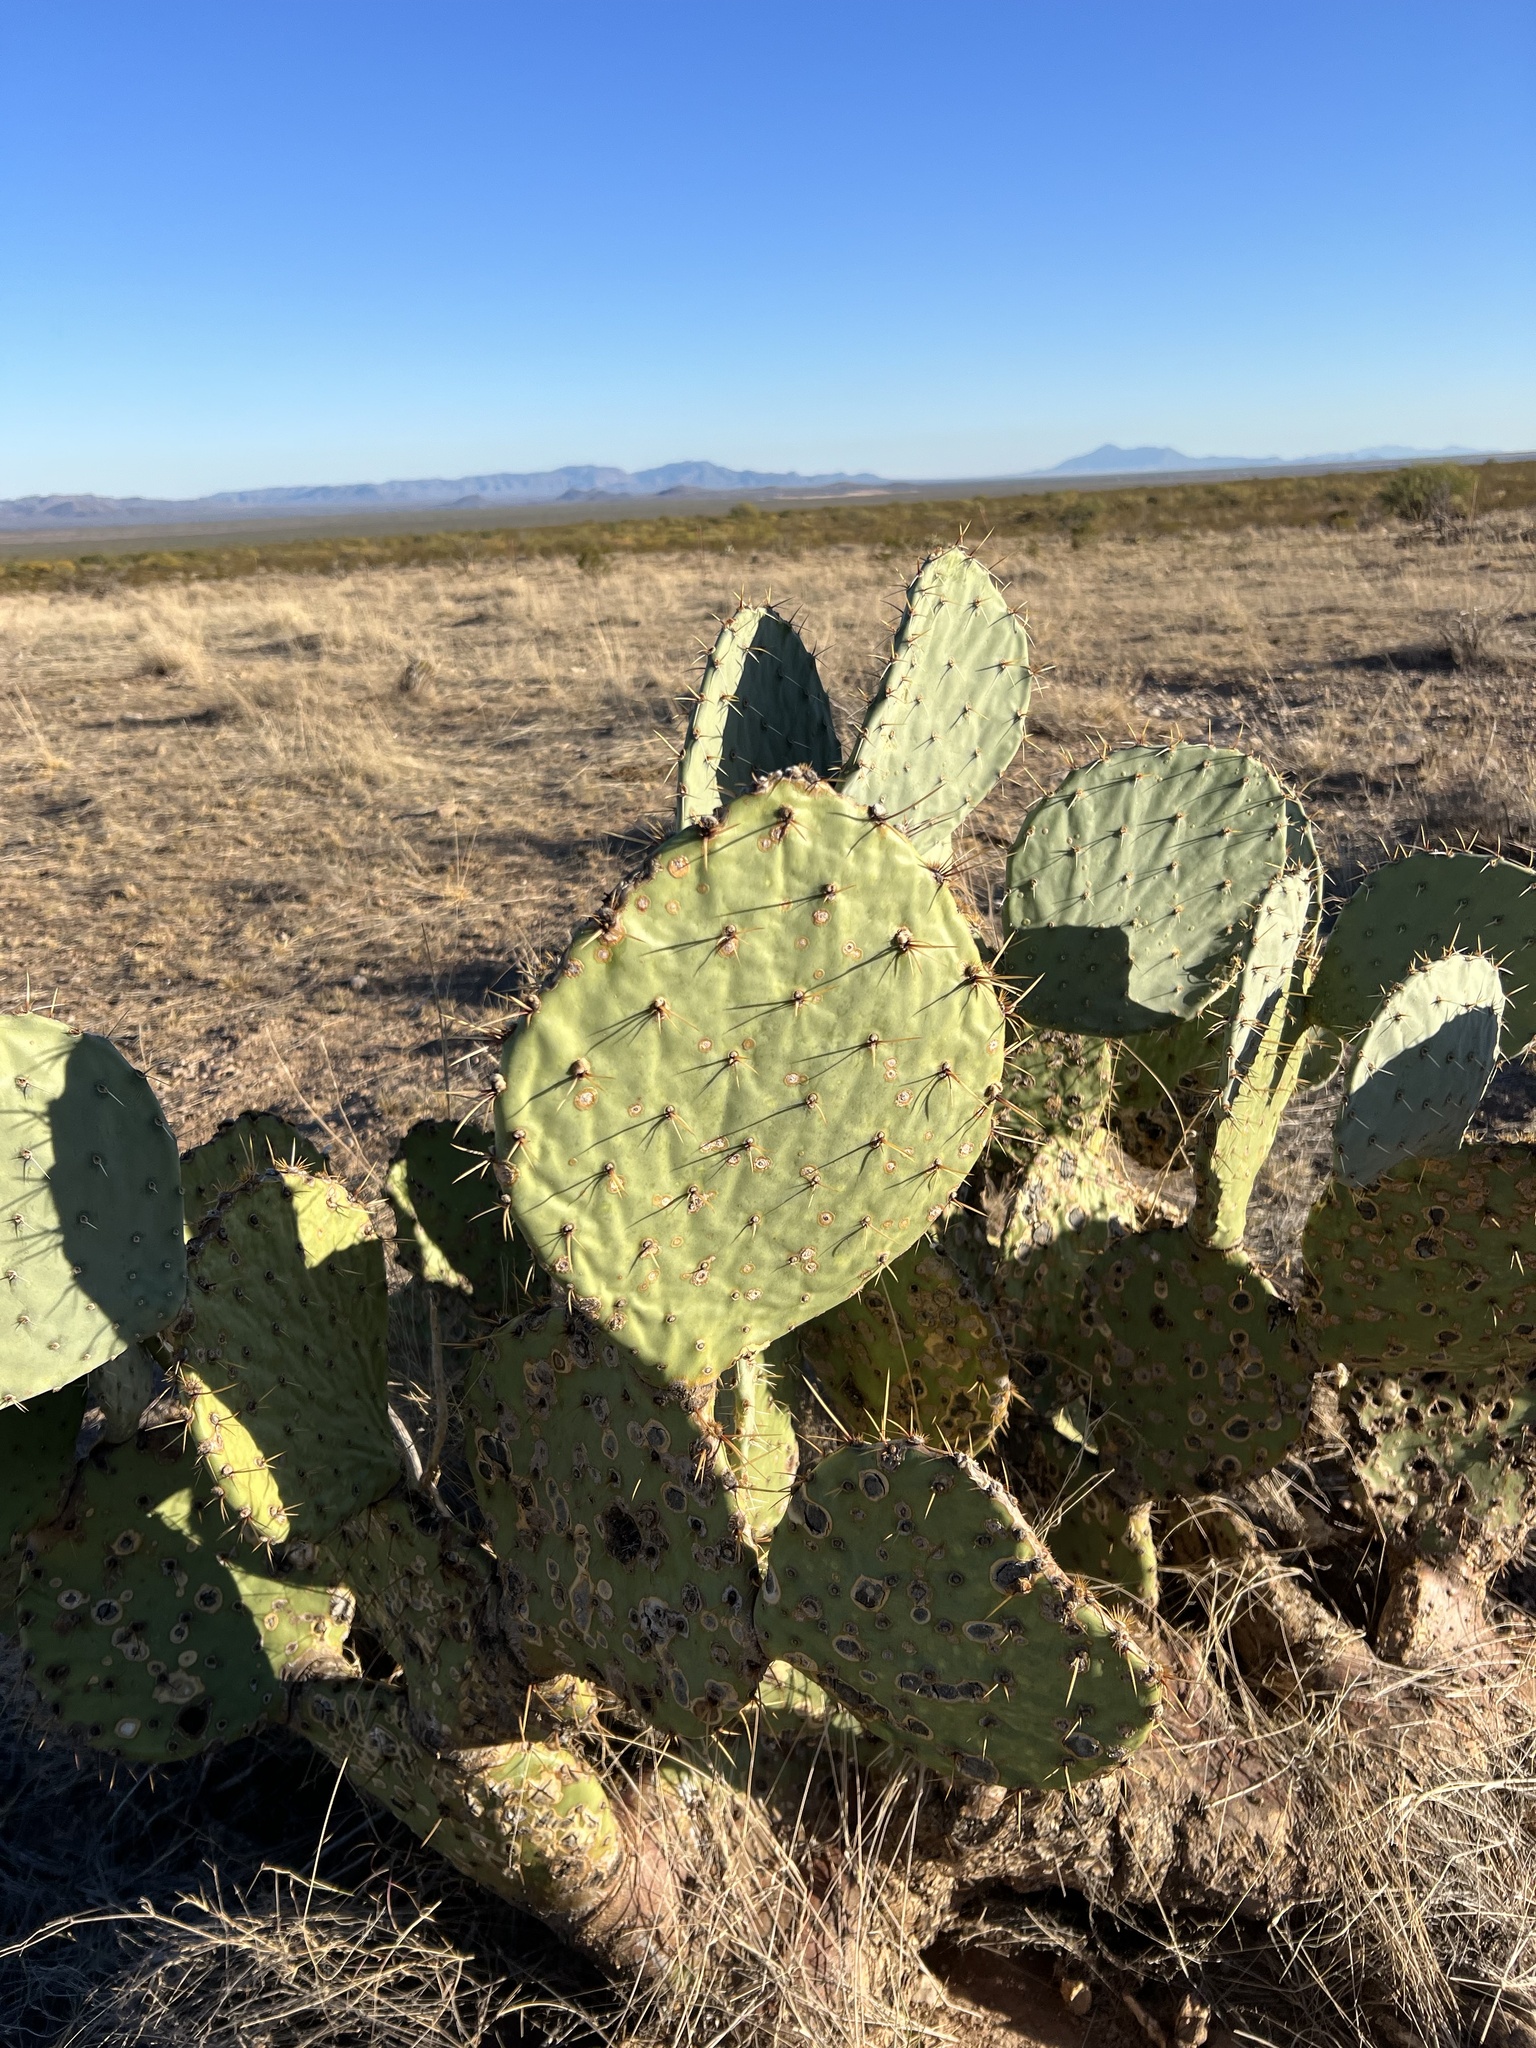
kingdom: Plantae
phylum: Tracheophyta
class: Magnoliopsida
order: Caryophyllales
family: Cactaceae
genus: Opuntia
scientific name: Opuntia engelmannii
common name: Cactus-apple
